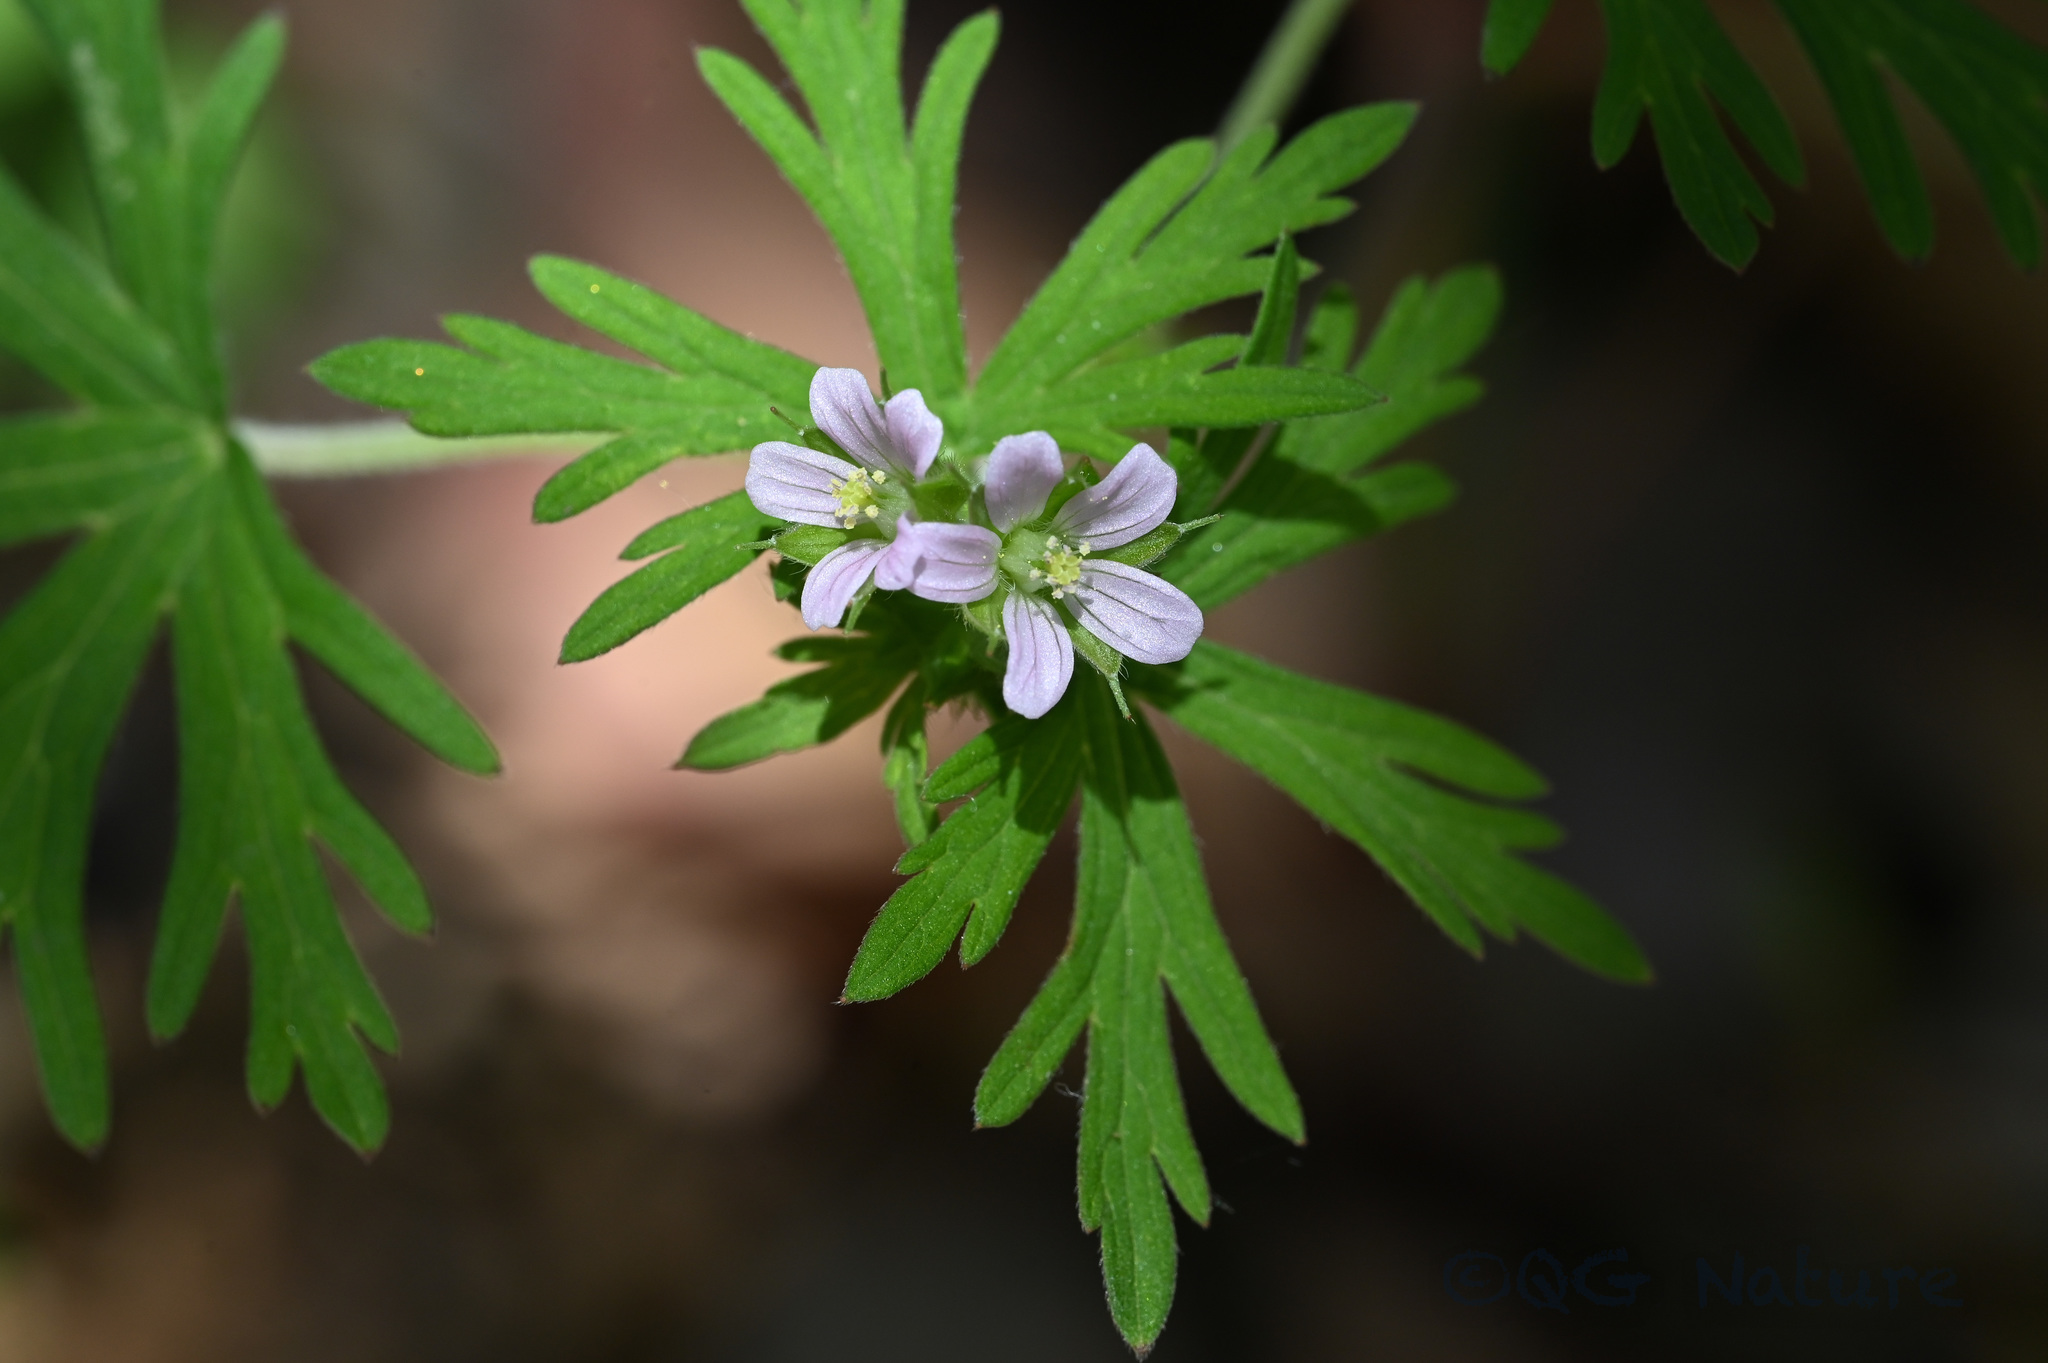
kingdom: Plantae
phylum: Tracheophyta
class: Magnoliopsida
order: Geraniales
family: Geraniaceae
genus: Geranium
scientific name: Geranium carolinianum
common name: Carolina crane's-bill
